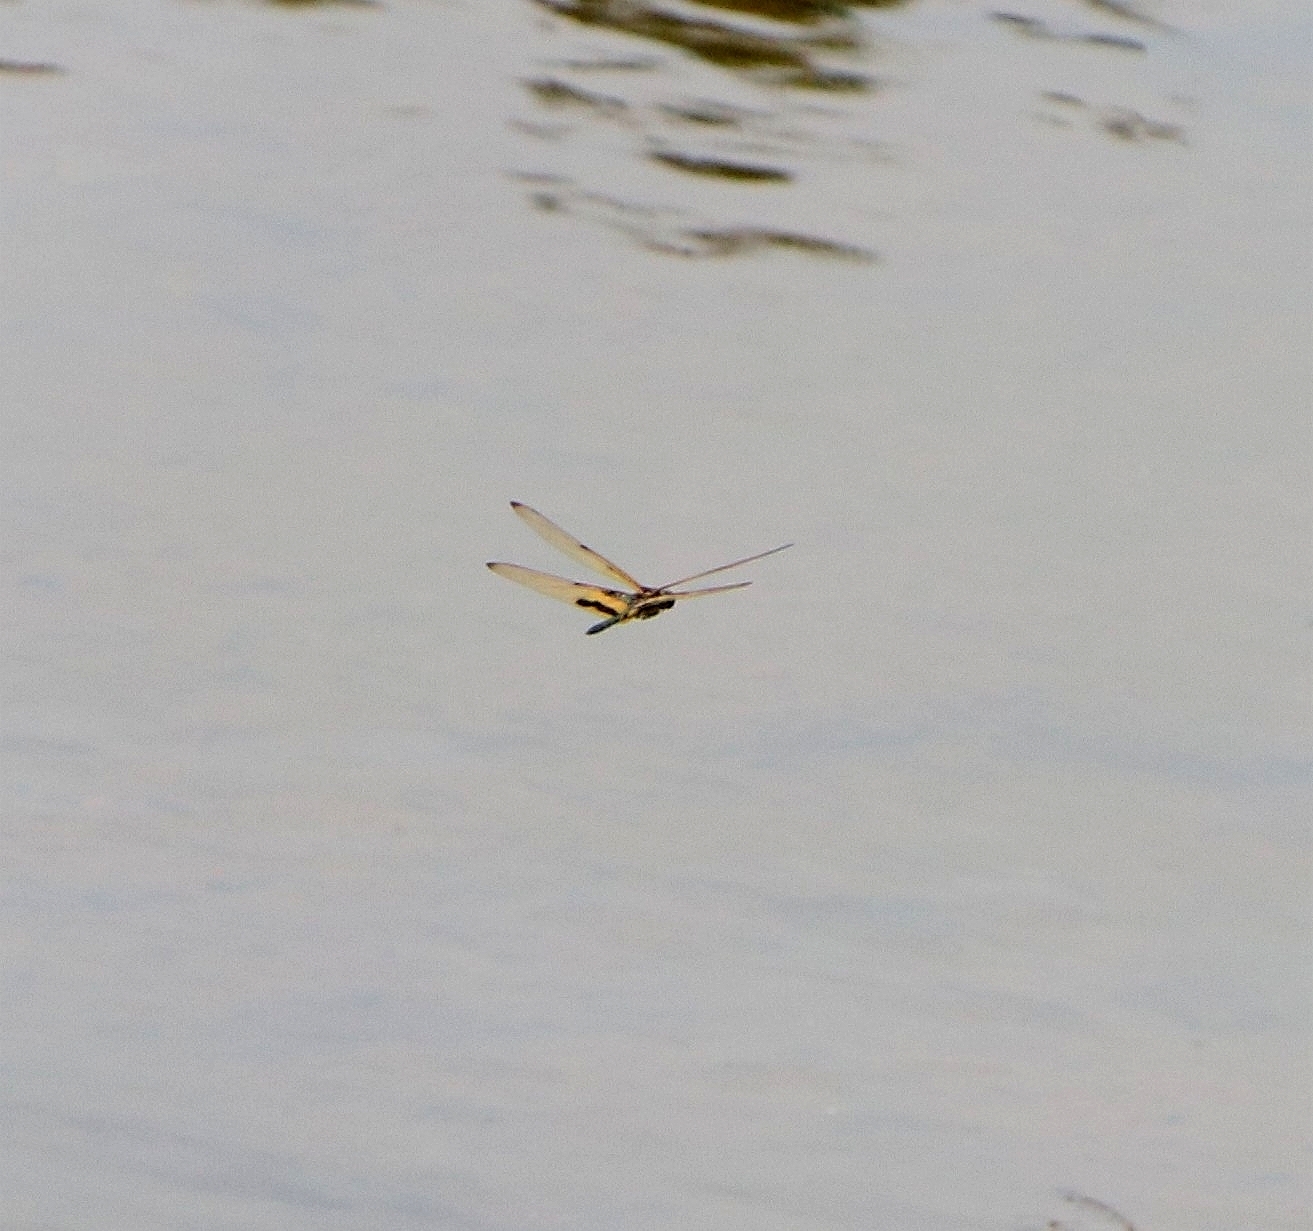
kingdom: Animalia
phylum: Arthropoda
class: Insecta
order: Odonata
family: Libellulidae
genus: Rhyothemis
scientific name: Rhyothemis variegata
